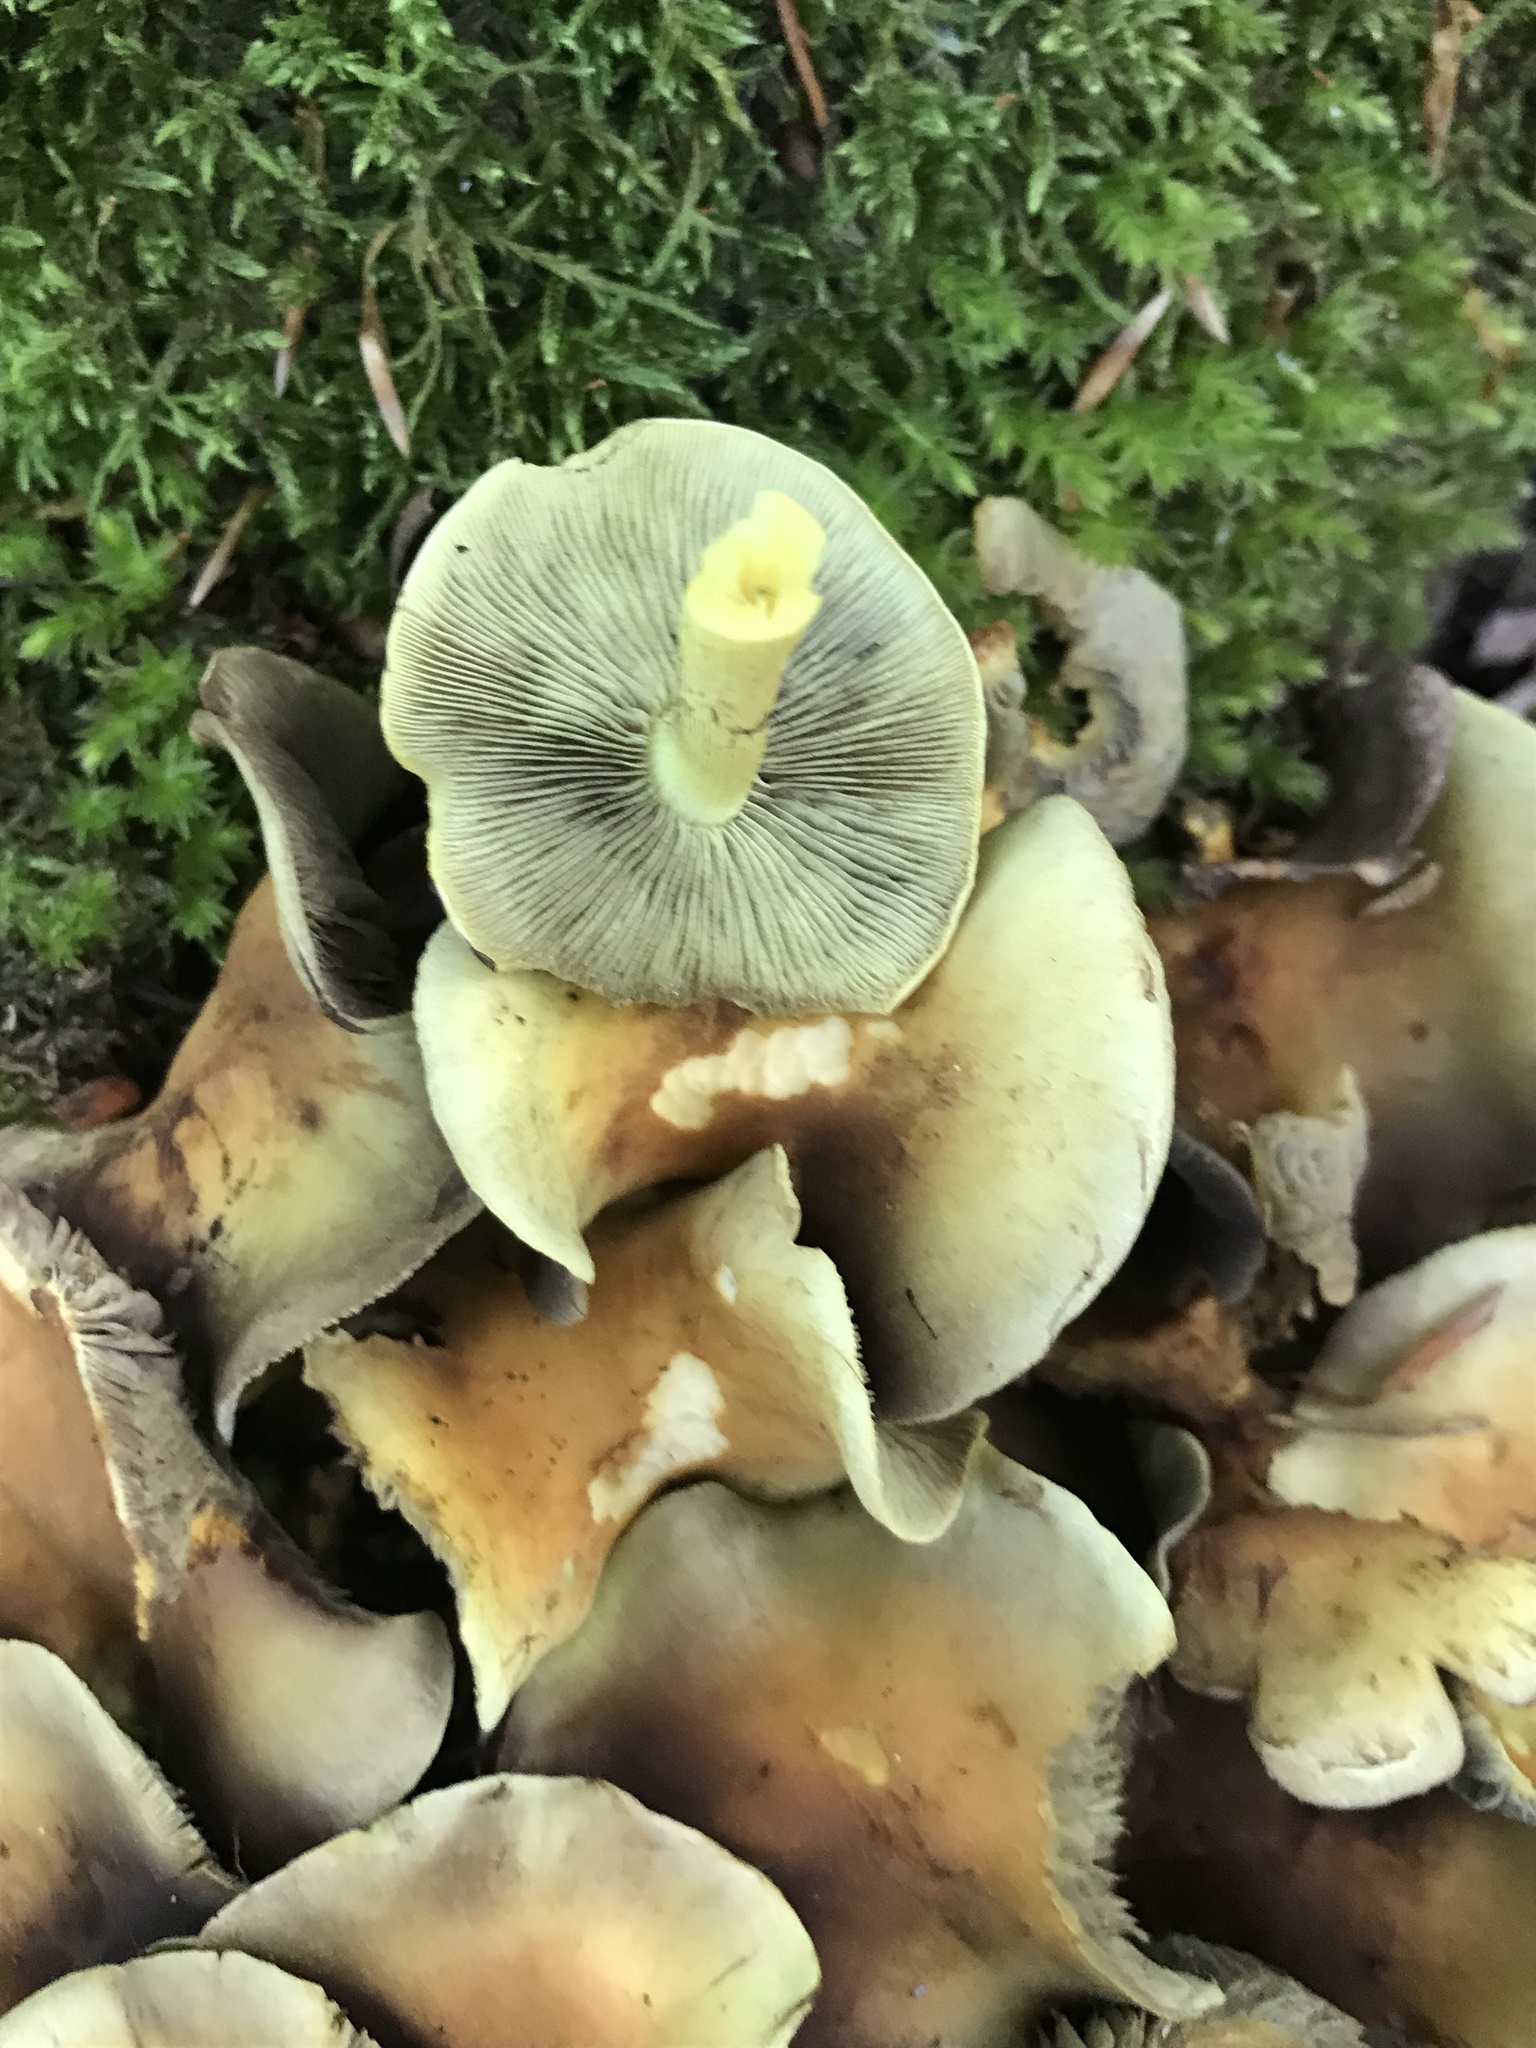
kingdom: Fungi
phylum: Basidiomycota
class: Agaricomycetes
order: Agaricales
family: Strophariaceae
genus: Hypholoma
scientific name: Hypholoma fasciculare
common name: Sulphur tuft
